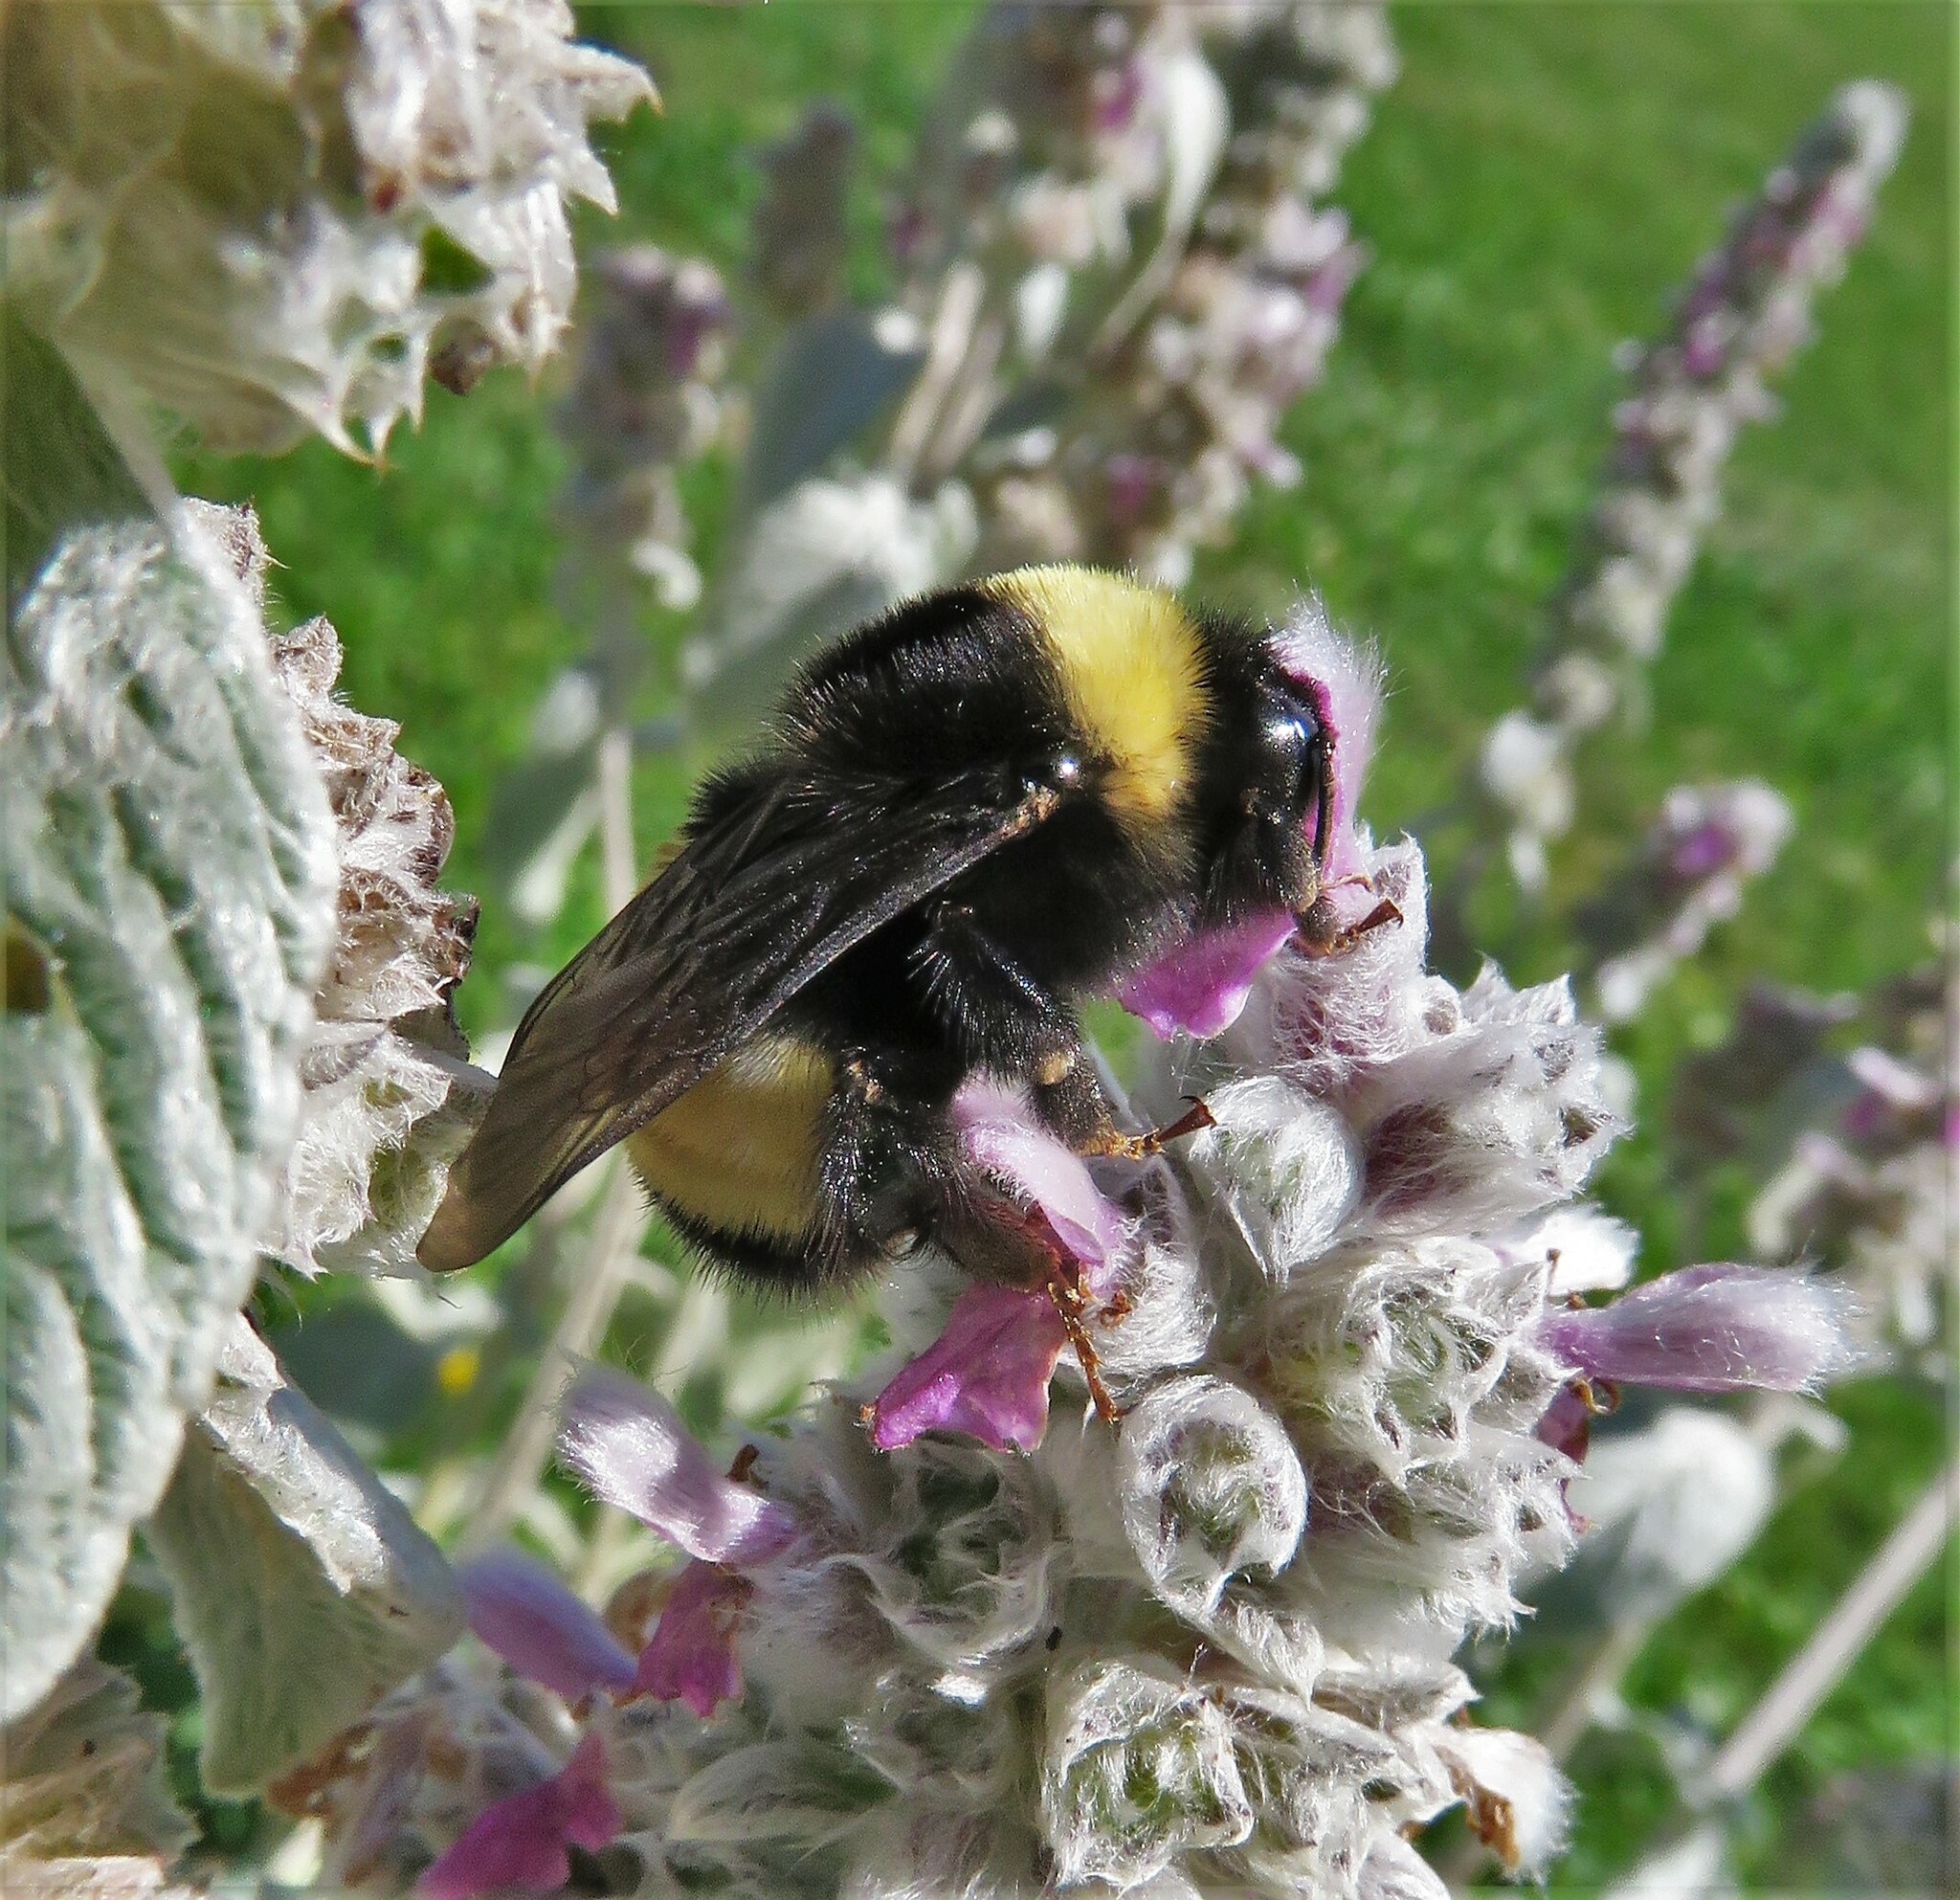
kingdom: Animalia
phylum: Arthropoda
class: Insecta
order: Hymenoptera
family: Apidae
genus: Bombus
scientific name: Bombus terricola
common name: Yellow-banded bumble bee
